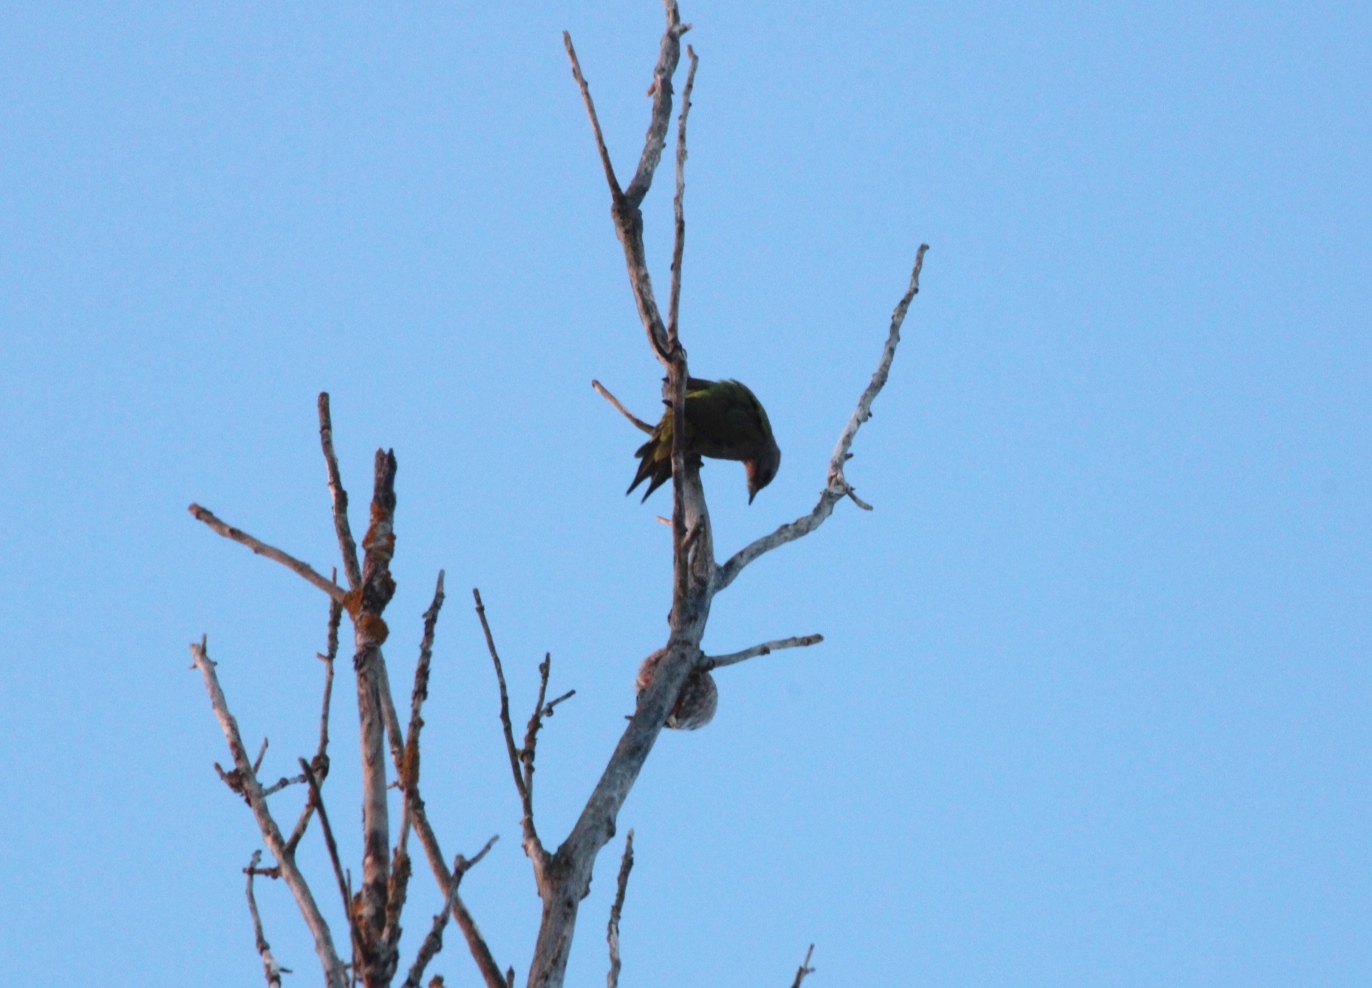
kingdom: Animalia
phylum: Chordata
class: Aves
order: Piciformes
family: Picidae
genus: Picus
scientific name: Picus canus
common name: Grey-headed woodpecker
